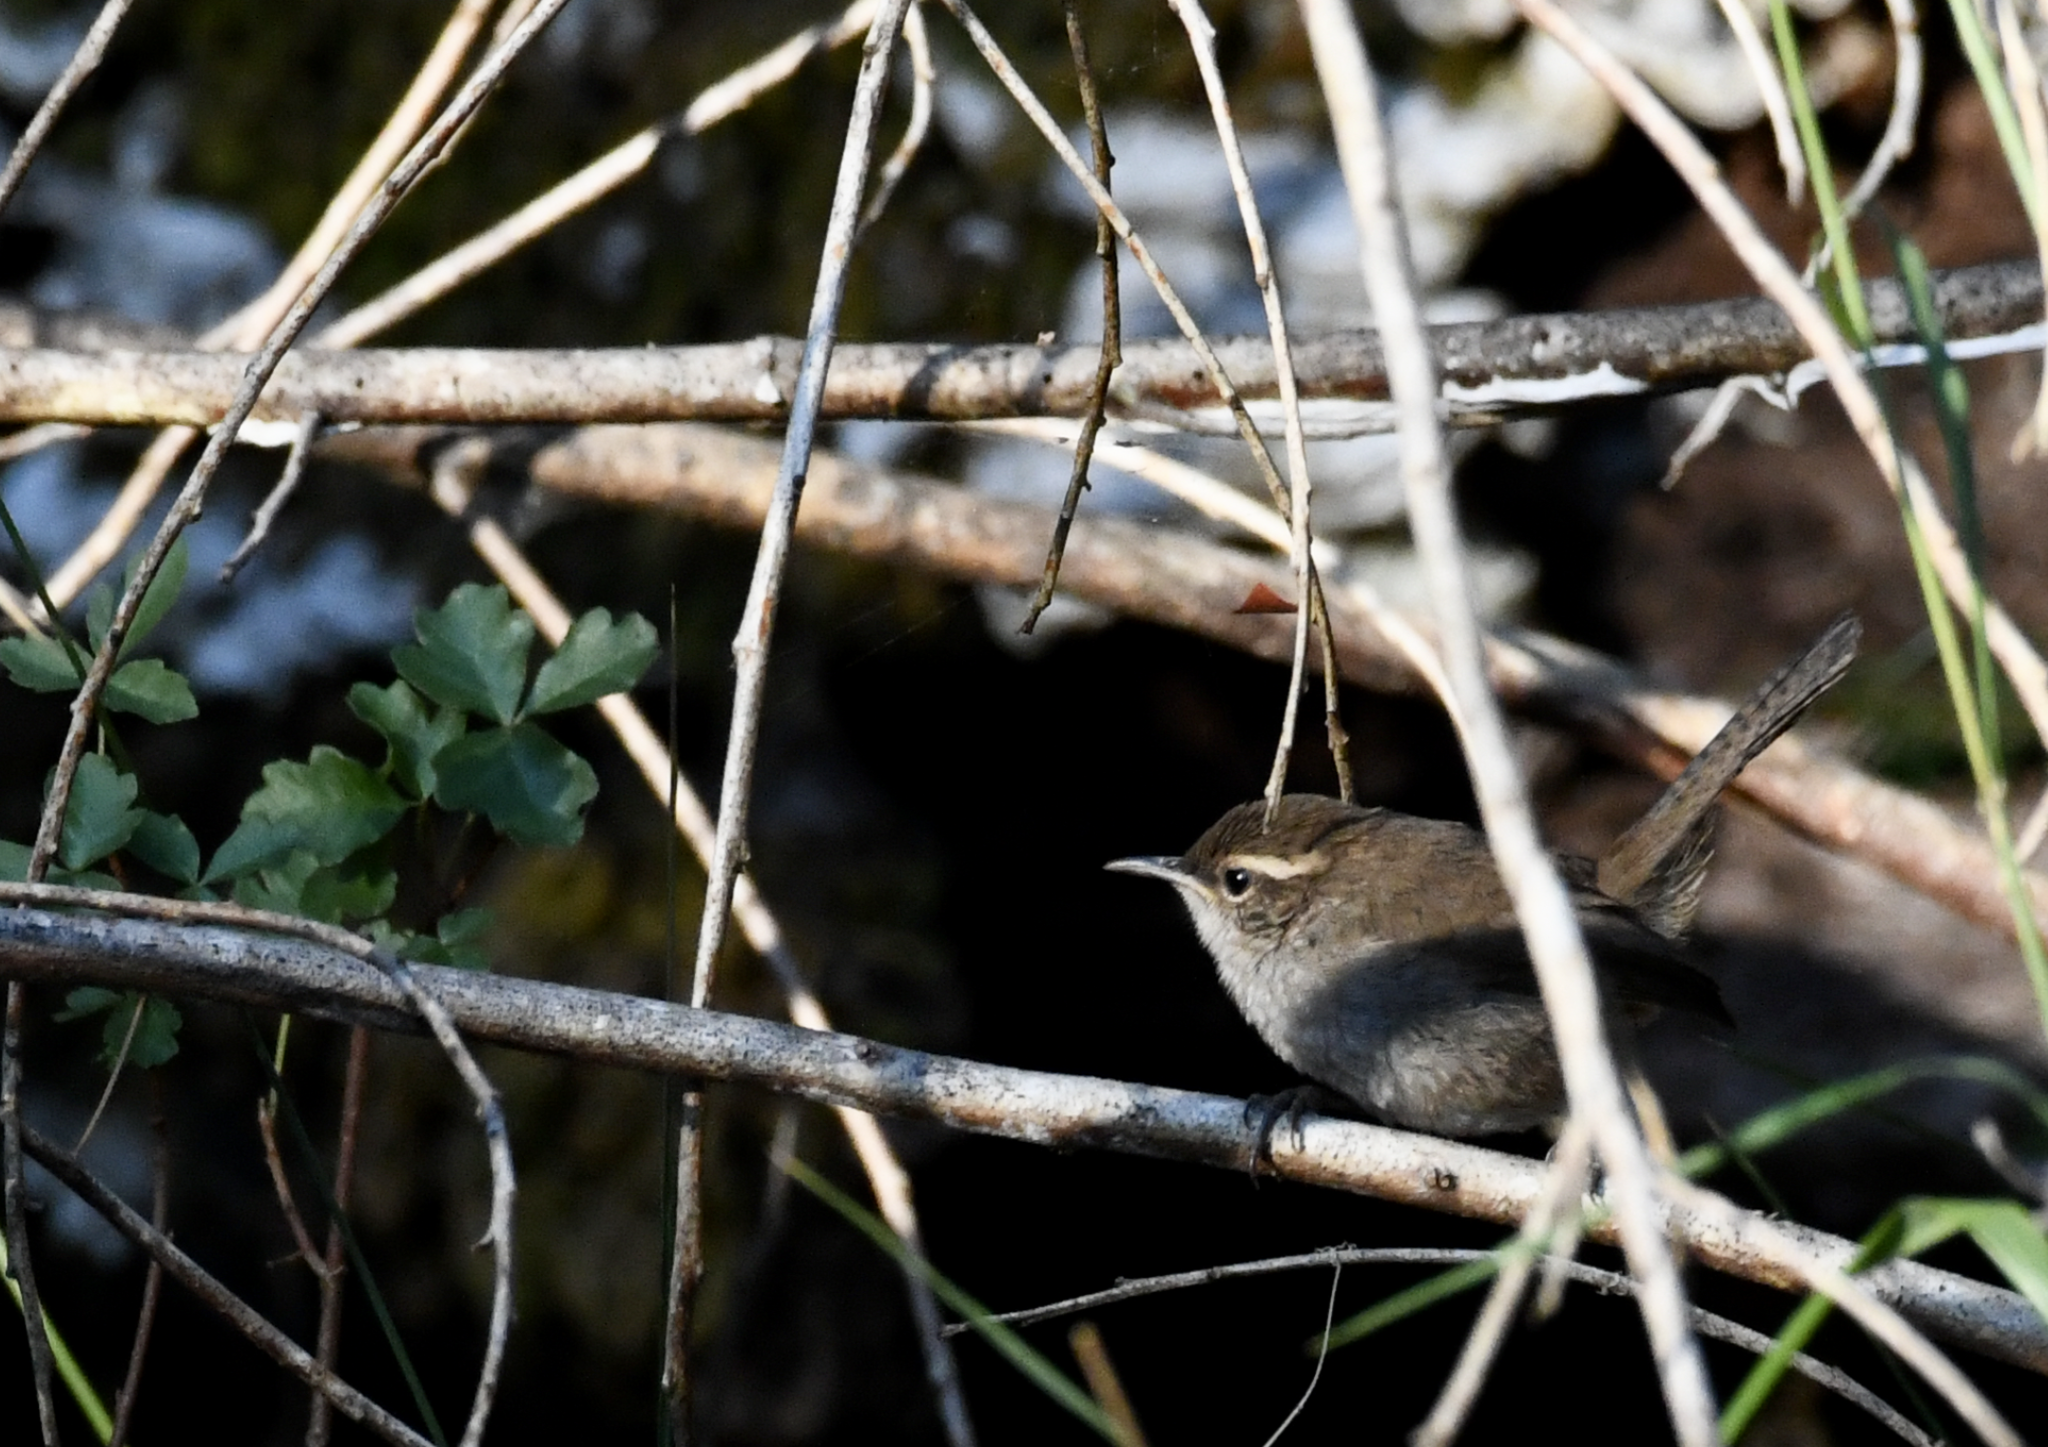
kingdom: Animalia
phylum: Chordata
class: Aves
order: Passeriformes
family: Troglodytidae
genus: Thryomanes
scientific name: Thryomanes bewickii
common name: Bewick's wren
